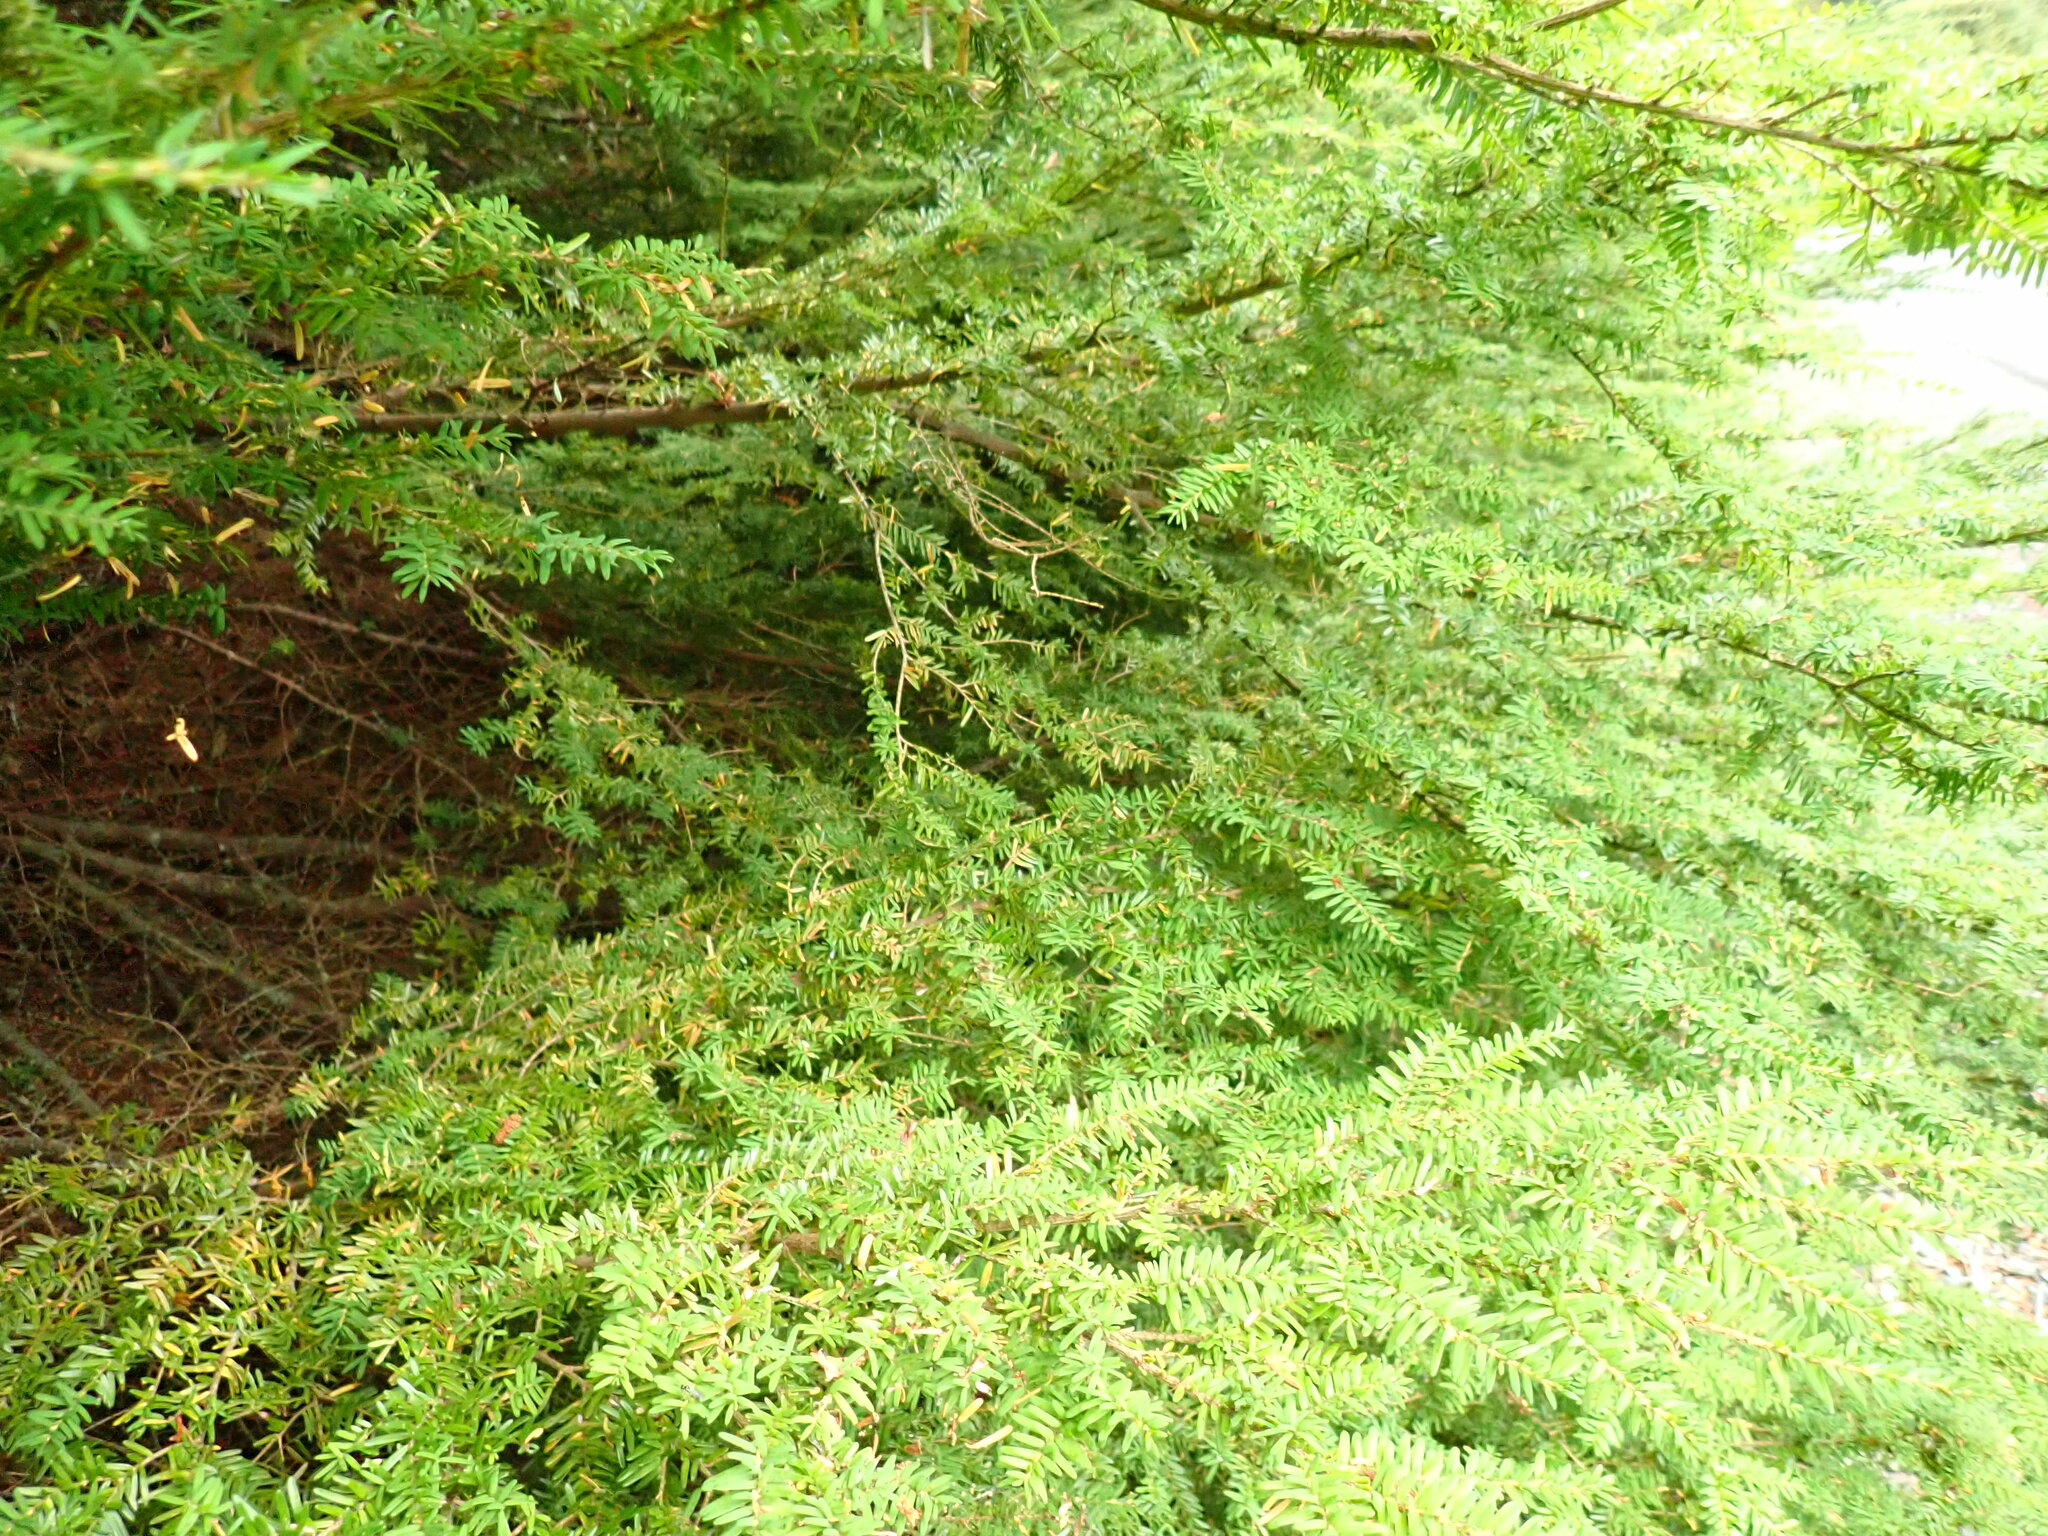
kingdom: Plantae
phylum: Tracheophyta
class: Pinopsida
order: Pinales
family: Pinaceae
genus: Tsuga
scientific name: Tsuga heterophylla
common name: Western hemlock
